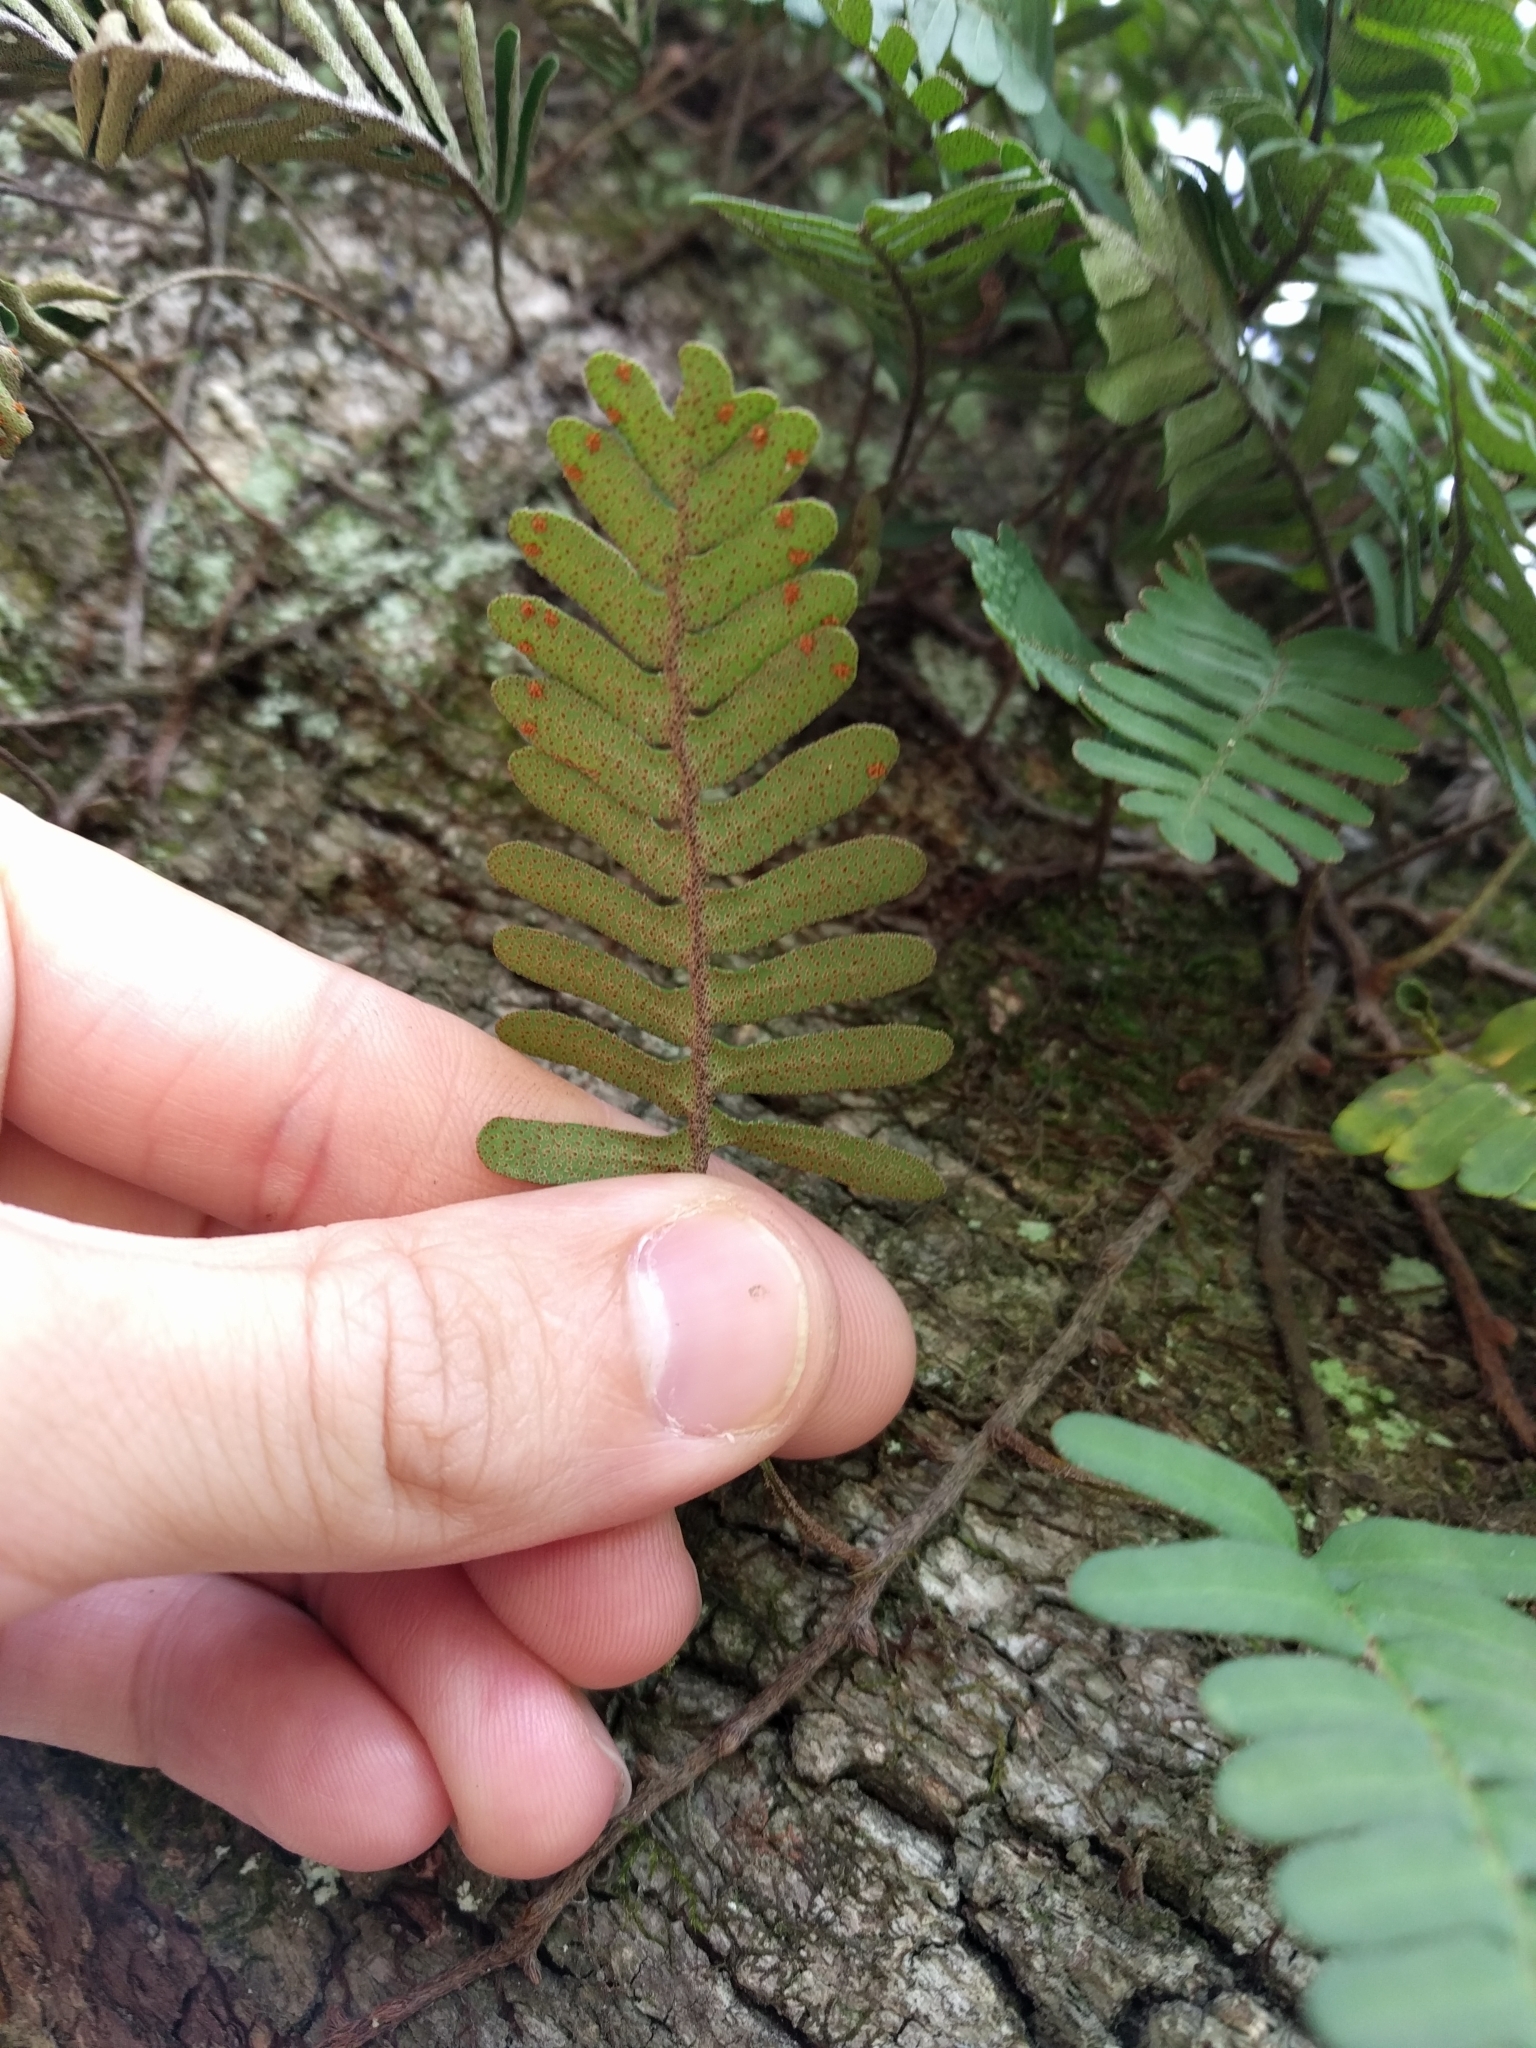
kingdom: Plantae
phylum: Tracheophyta
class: Polypodiopsida
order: Polypodiales
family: Polypodiaceae
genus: Pleopeltis
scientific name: Pleopeltis michauxiana
